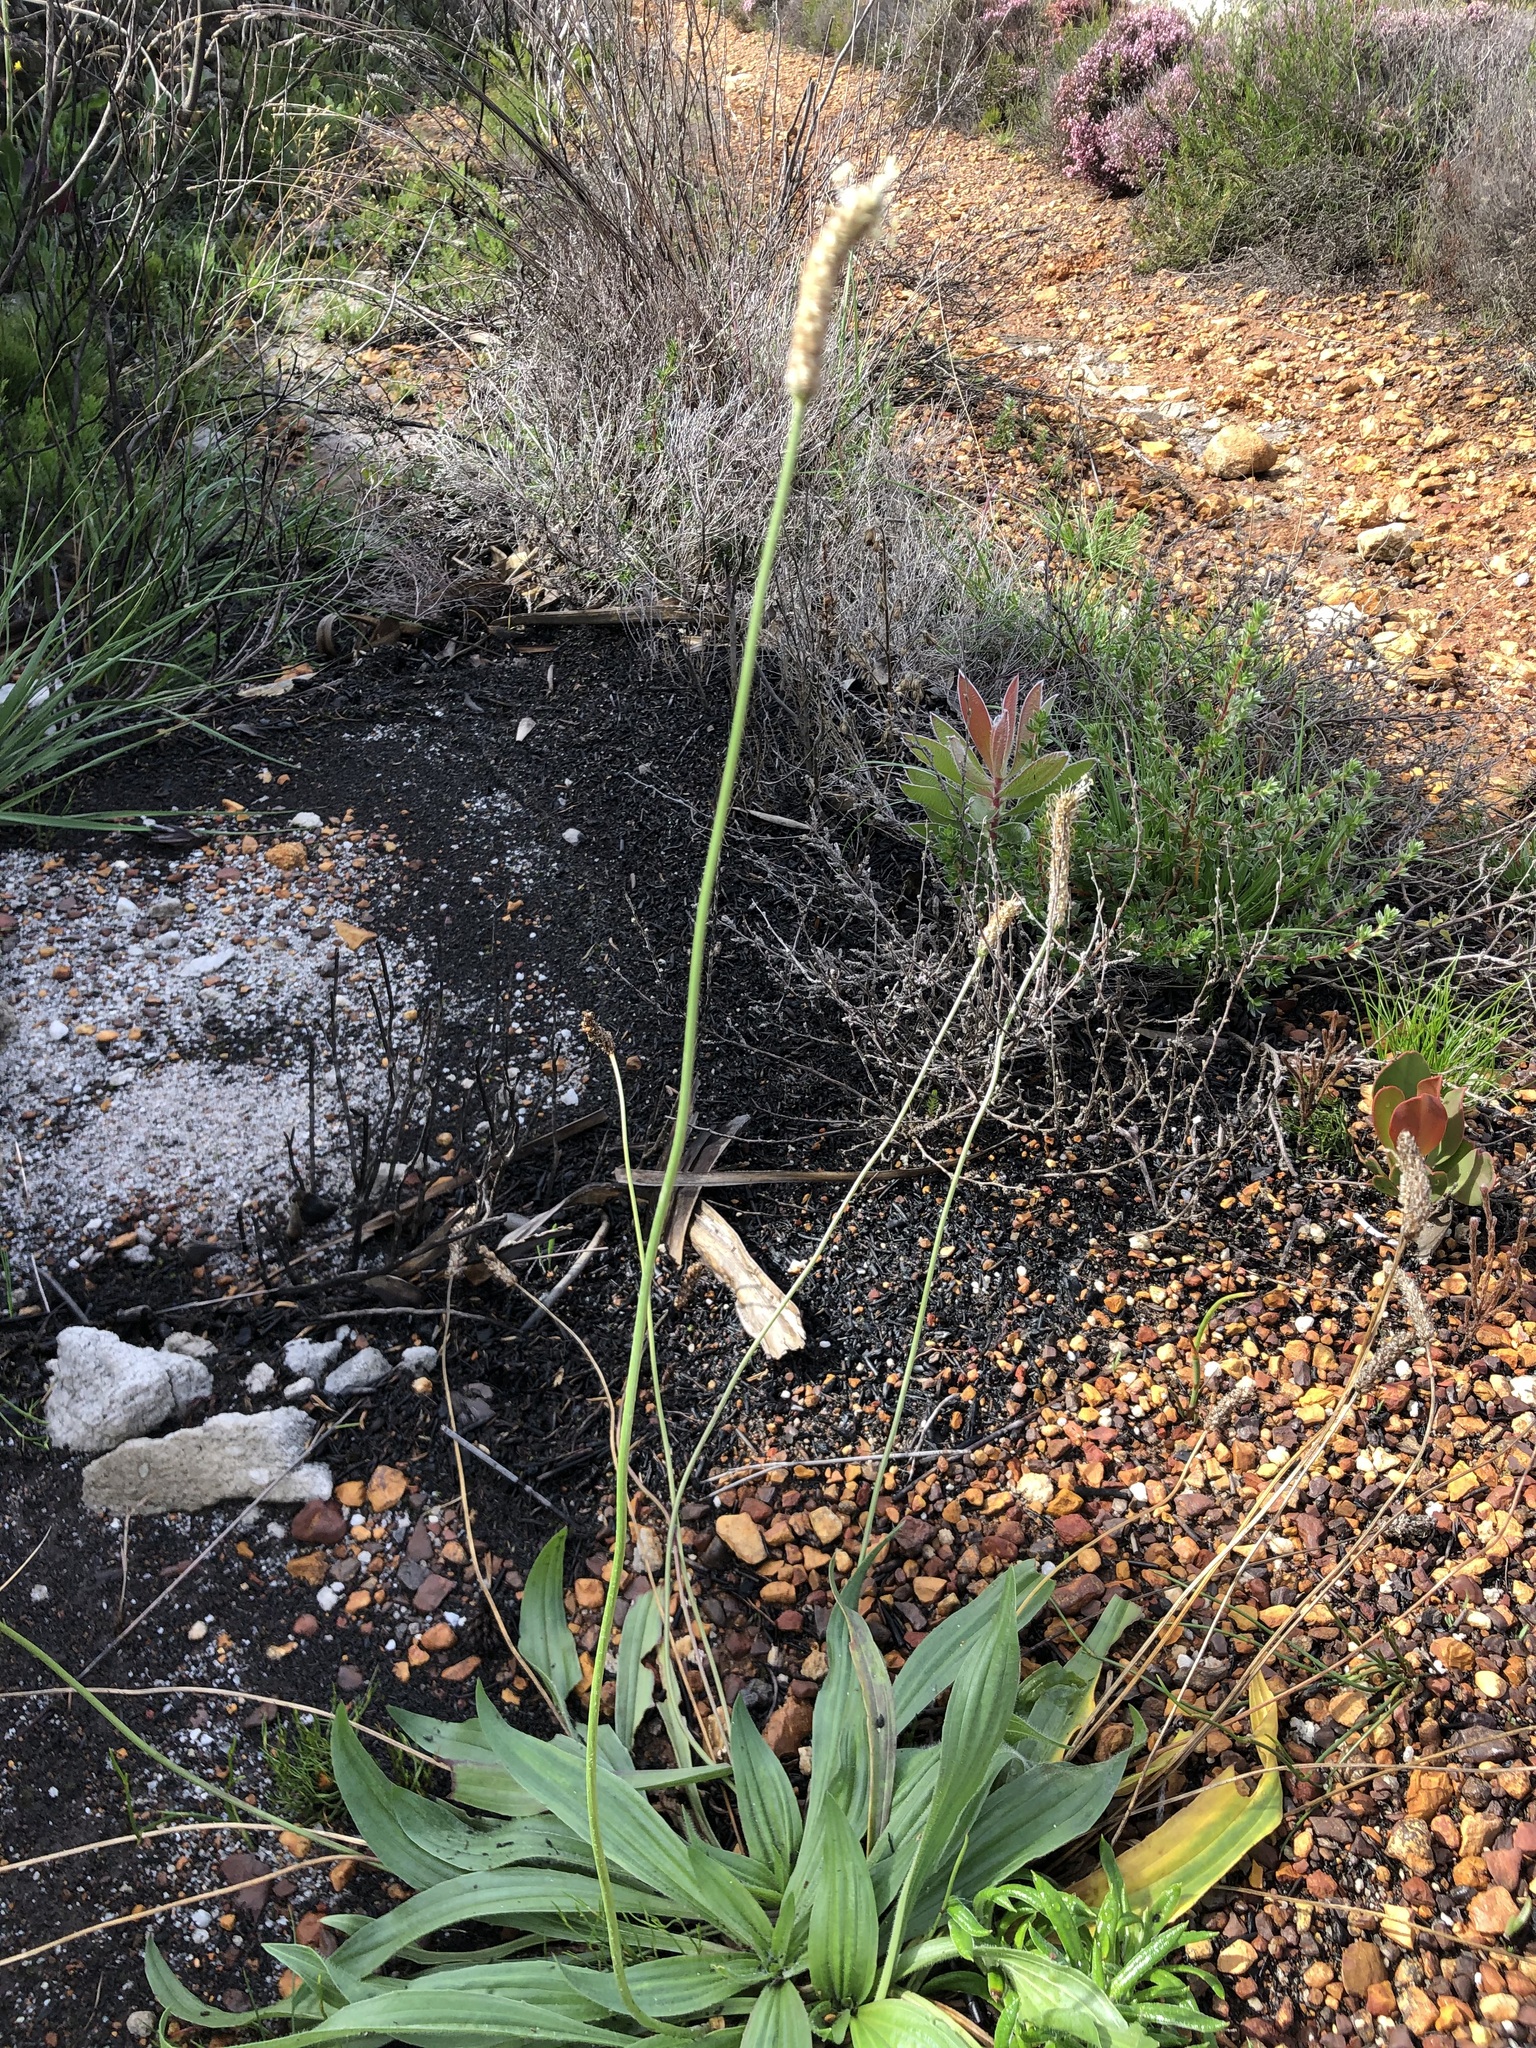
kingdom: Plantae
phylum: Tracheophyta
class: Magnoliopsida
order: Lamiales
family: Plantaginaceae
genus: Plantago
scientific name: Plantago lanceolata
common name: Ribwort plantain
